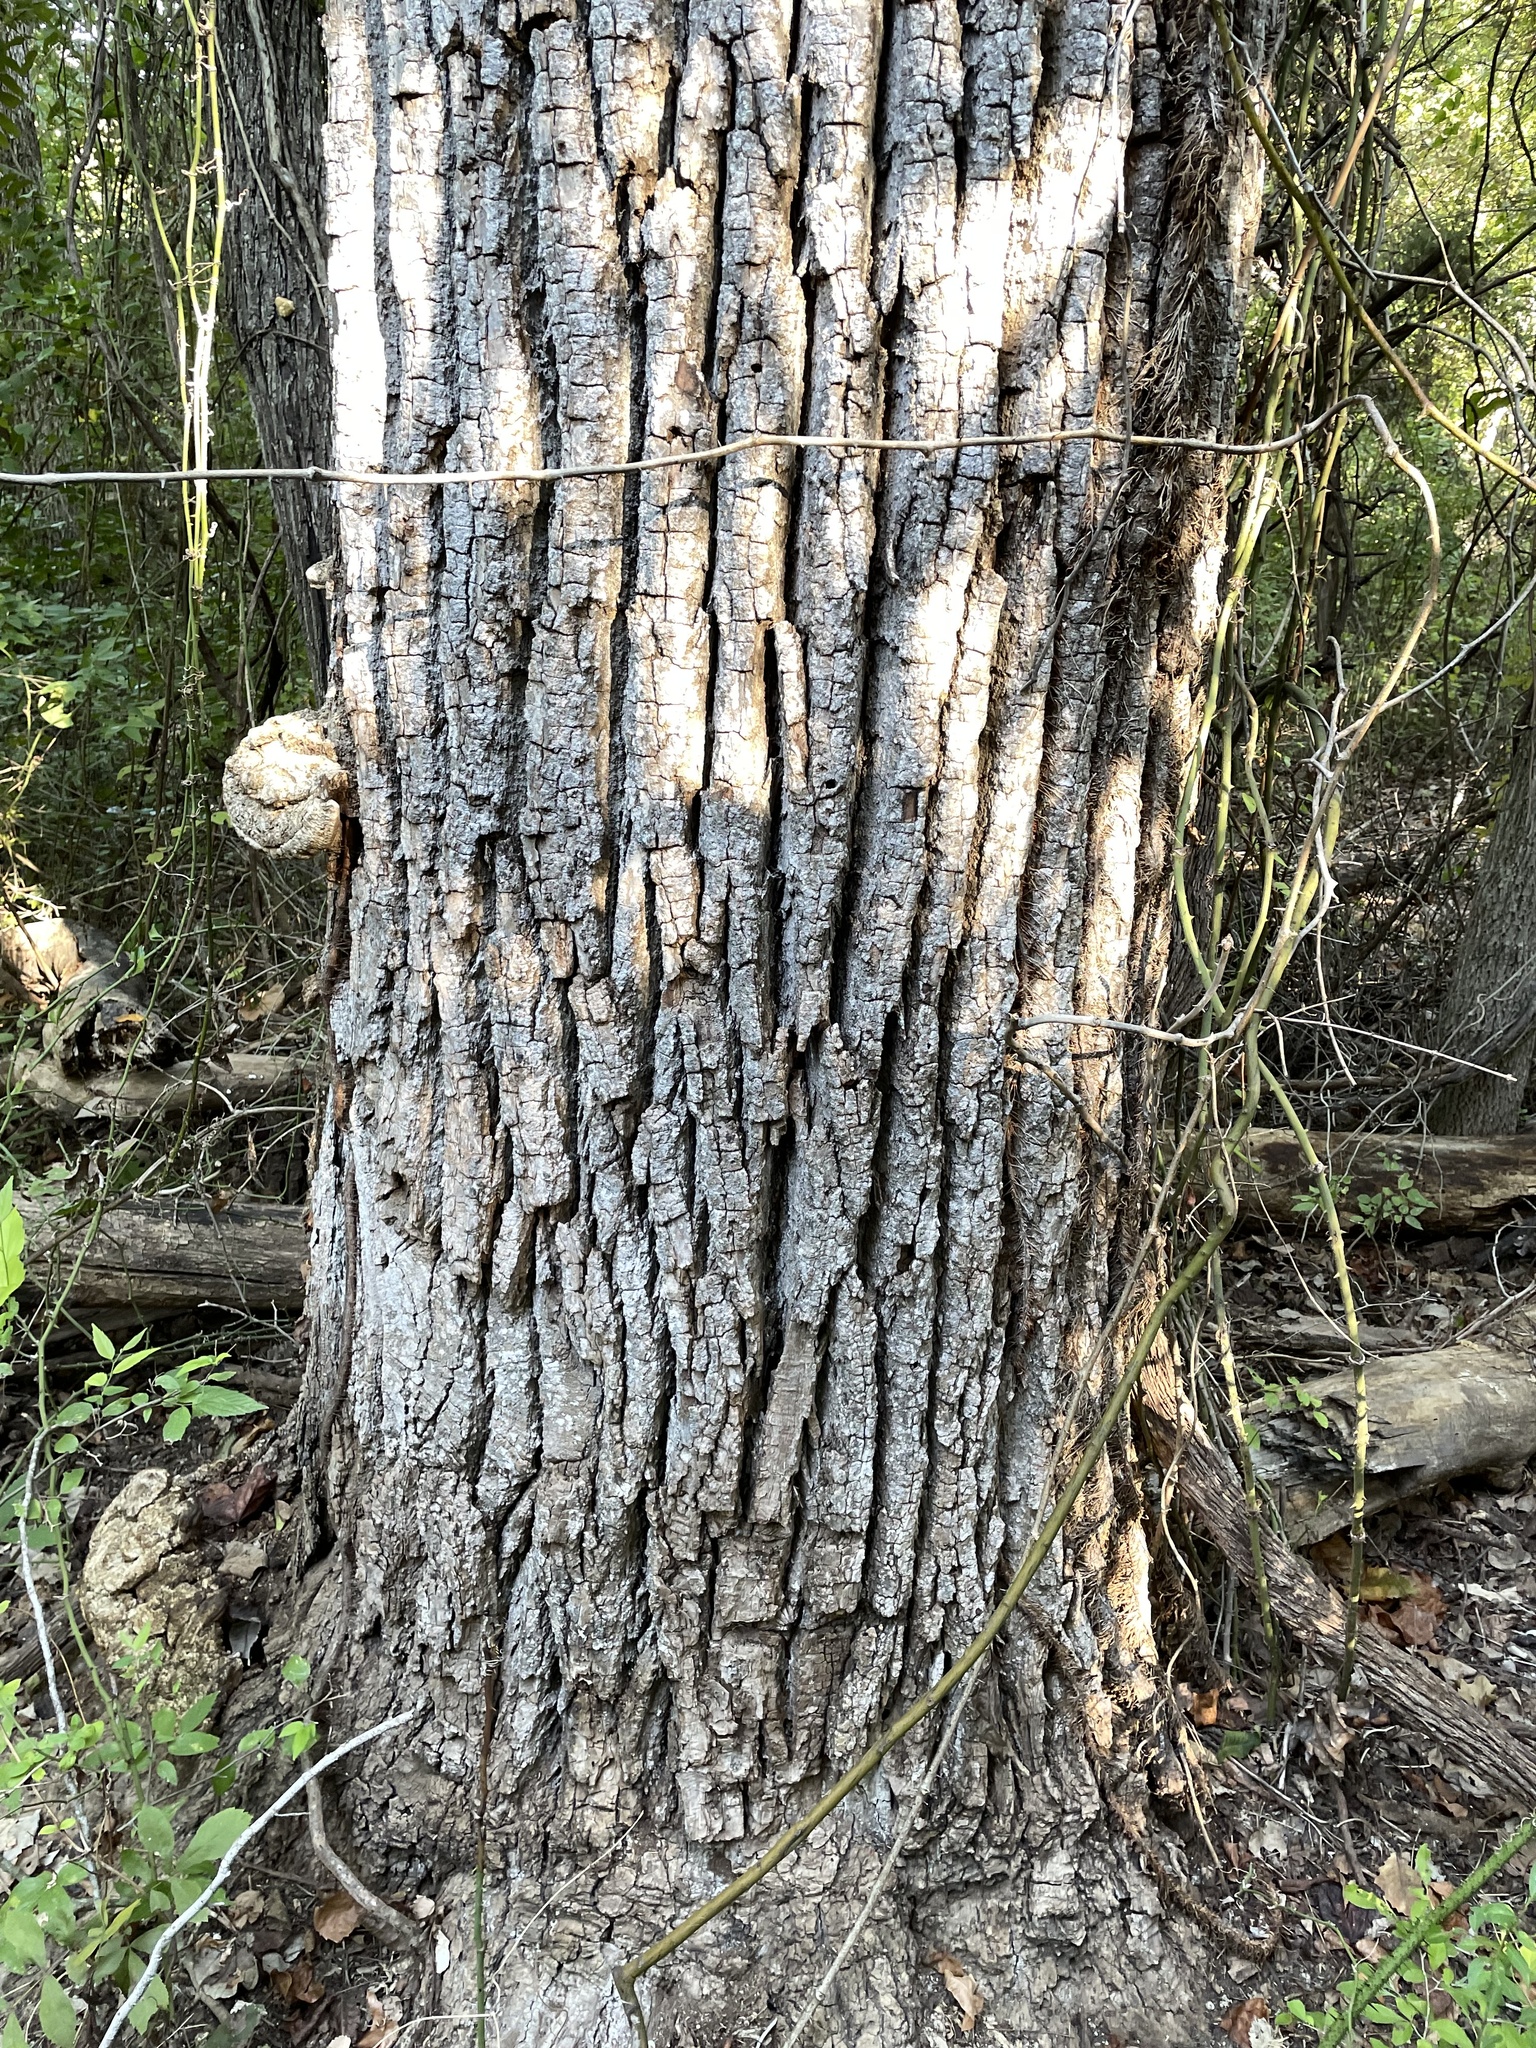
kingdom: Plantae
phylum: Tracheophyta
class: Magnoliopsida
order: Malpighiales
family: Salicaceae
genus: Populus
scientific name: Populus deltoides
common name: Eastern cottonwood
